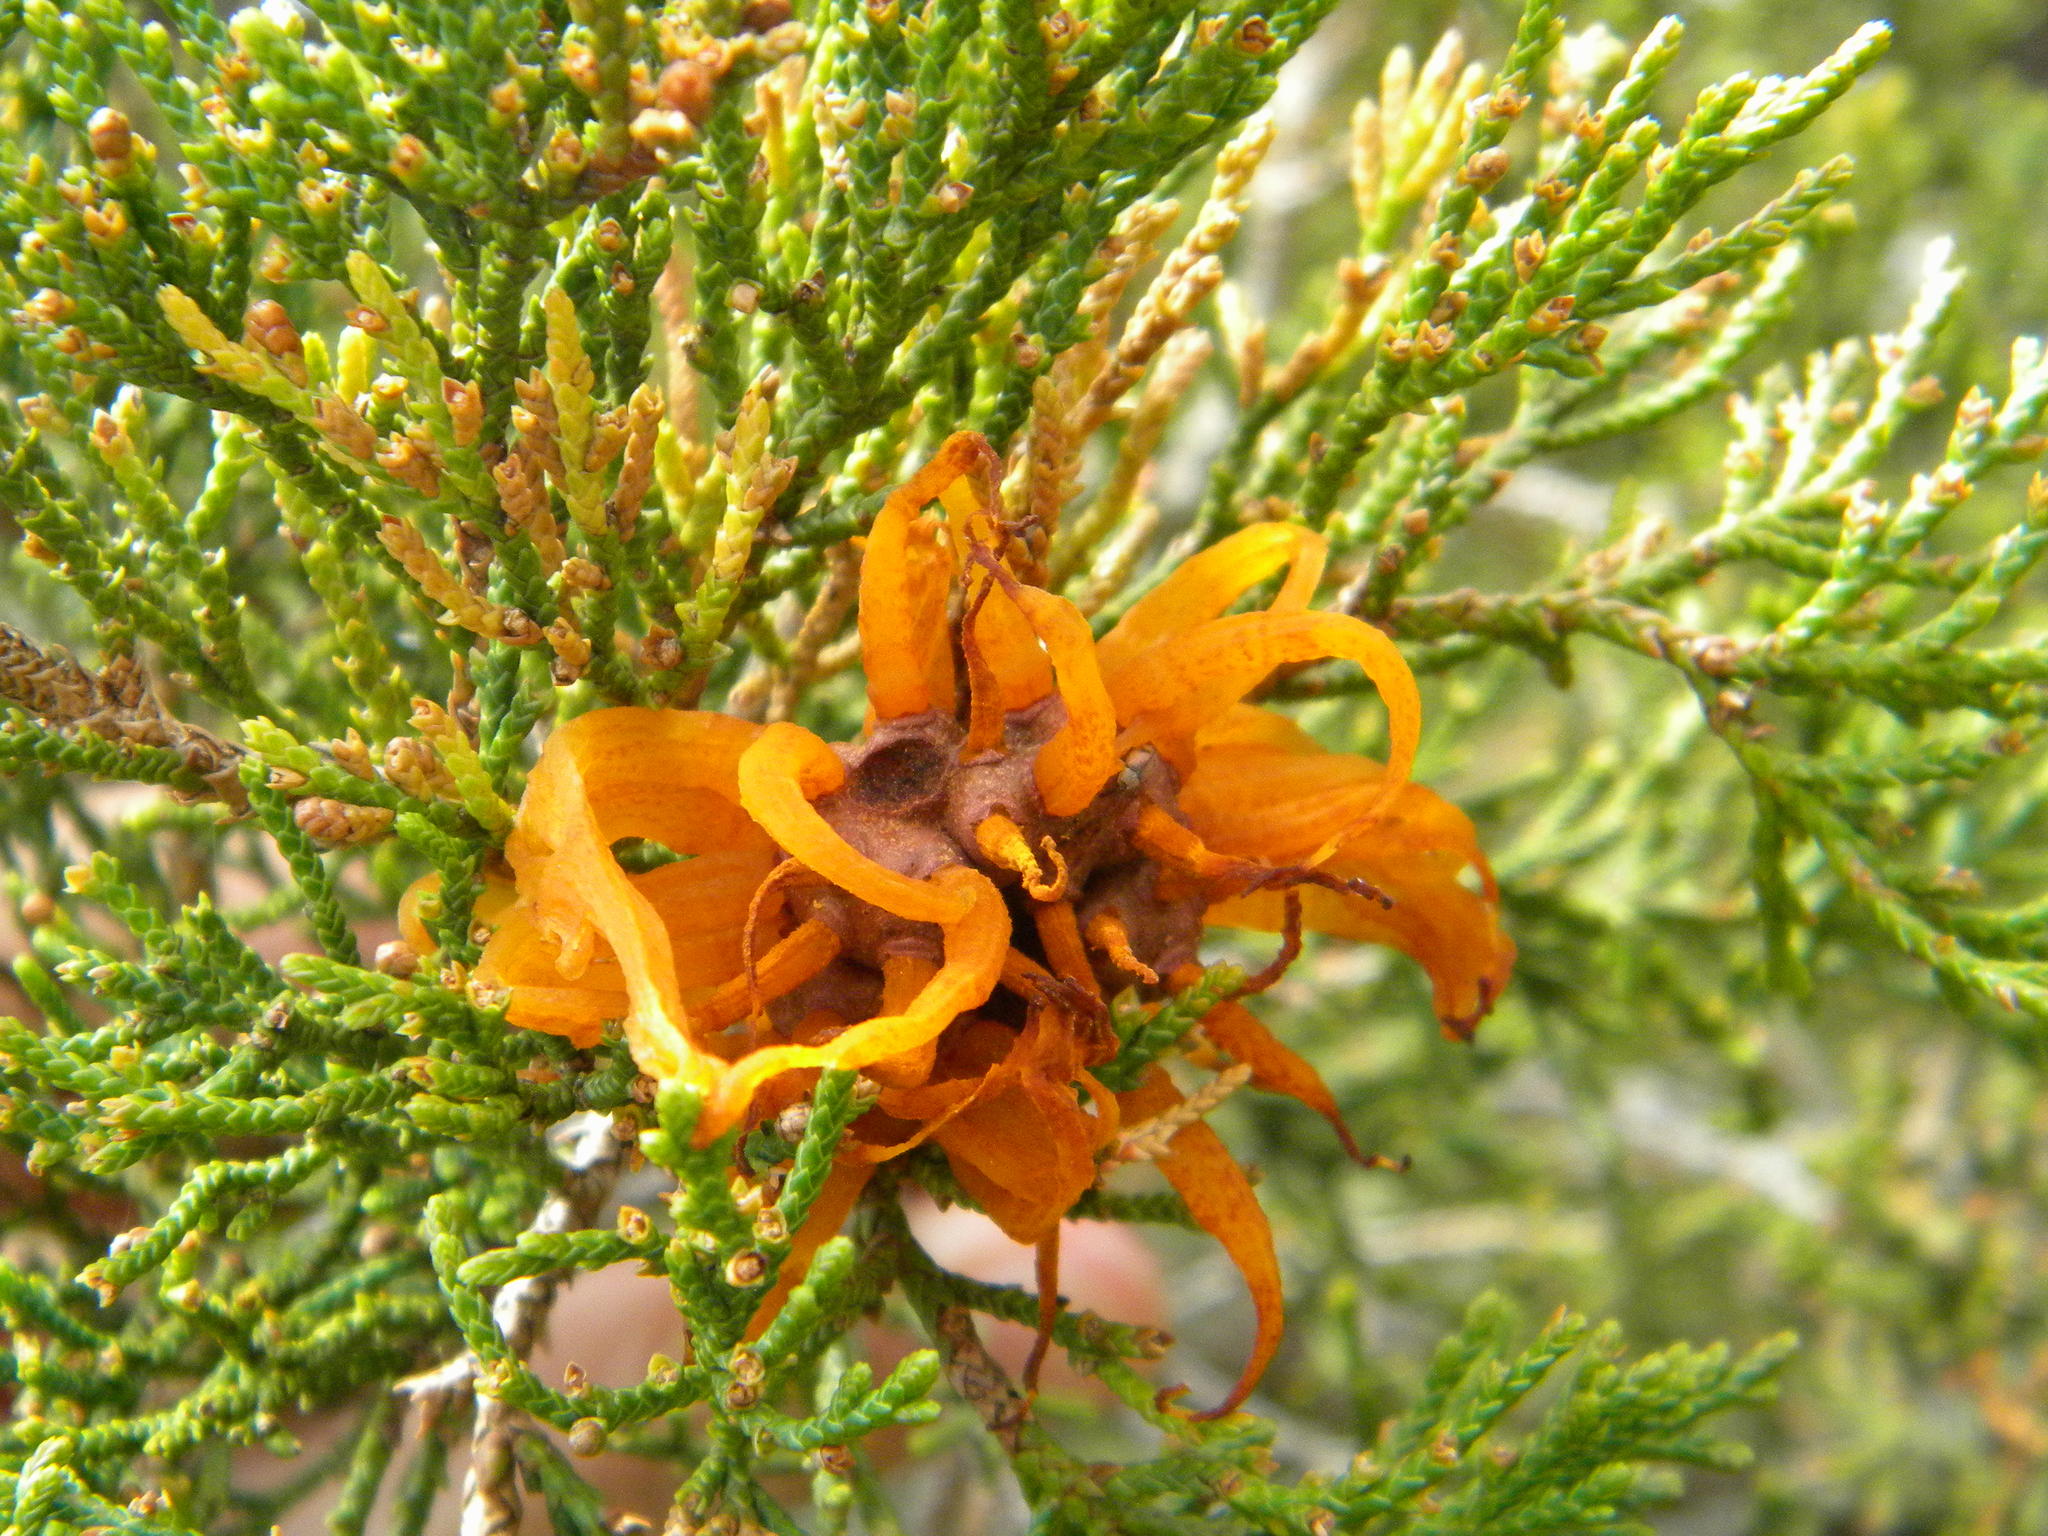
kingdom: Fungi
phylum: Basidiomycota
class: Pucciniomycetes
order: Pucciniales
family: Gymnosporangiaceae
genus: Gymnosporangium
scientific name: Gymnosporangium juniperi-virginianae
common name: Juniper-apple rust
